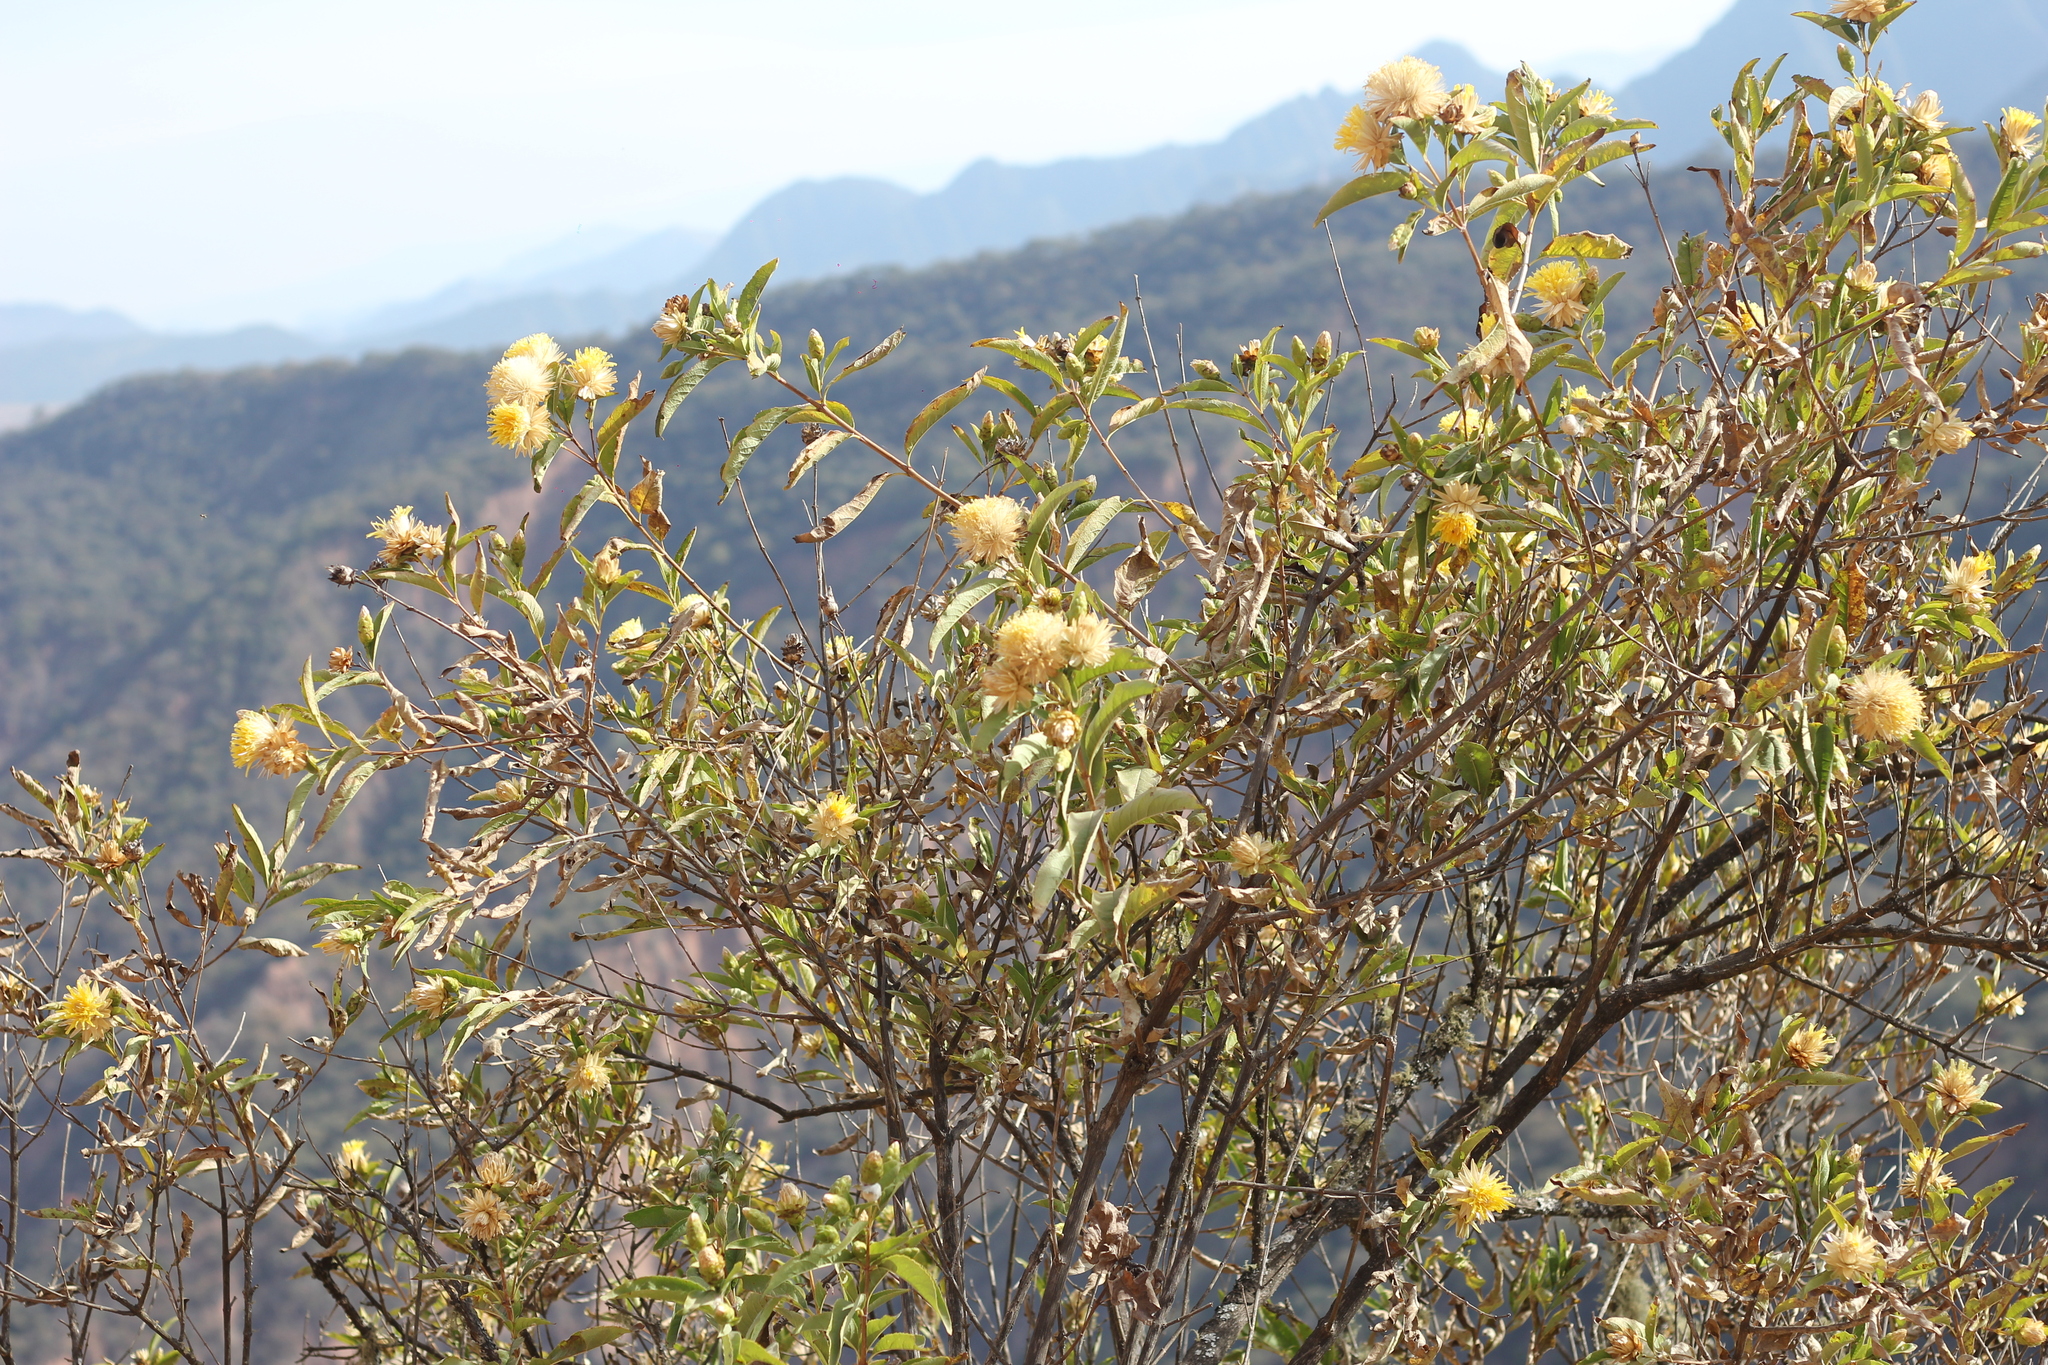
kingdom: Plantae
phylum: Tracheophyta
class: Magnoliopsida
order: Asterales
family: Asteraceae
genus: Hyaloseris
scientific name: Hyaloseris salicifolia
